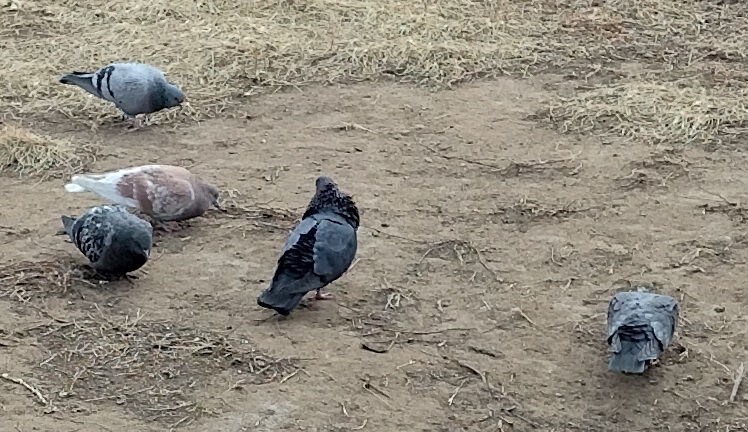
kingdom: Animalia
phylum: Chordata
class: Aves
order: Columbiformes
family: Columbidae
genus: Columba
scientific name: Columba livia
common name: Rock pigeon
